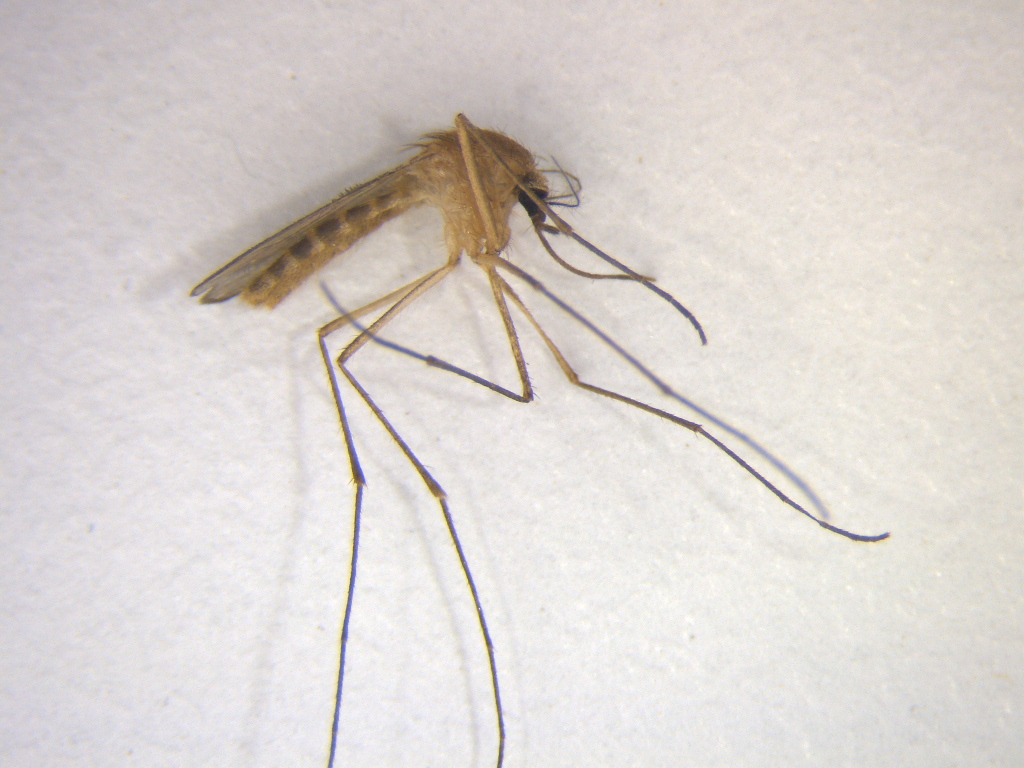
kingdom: Animalia
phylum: Arthropoda
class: Insecta
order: Diptera
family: Culicidae
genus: Culex
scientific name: Culex quinquefasciatus
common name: Southern house mosquito
